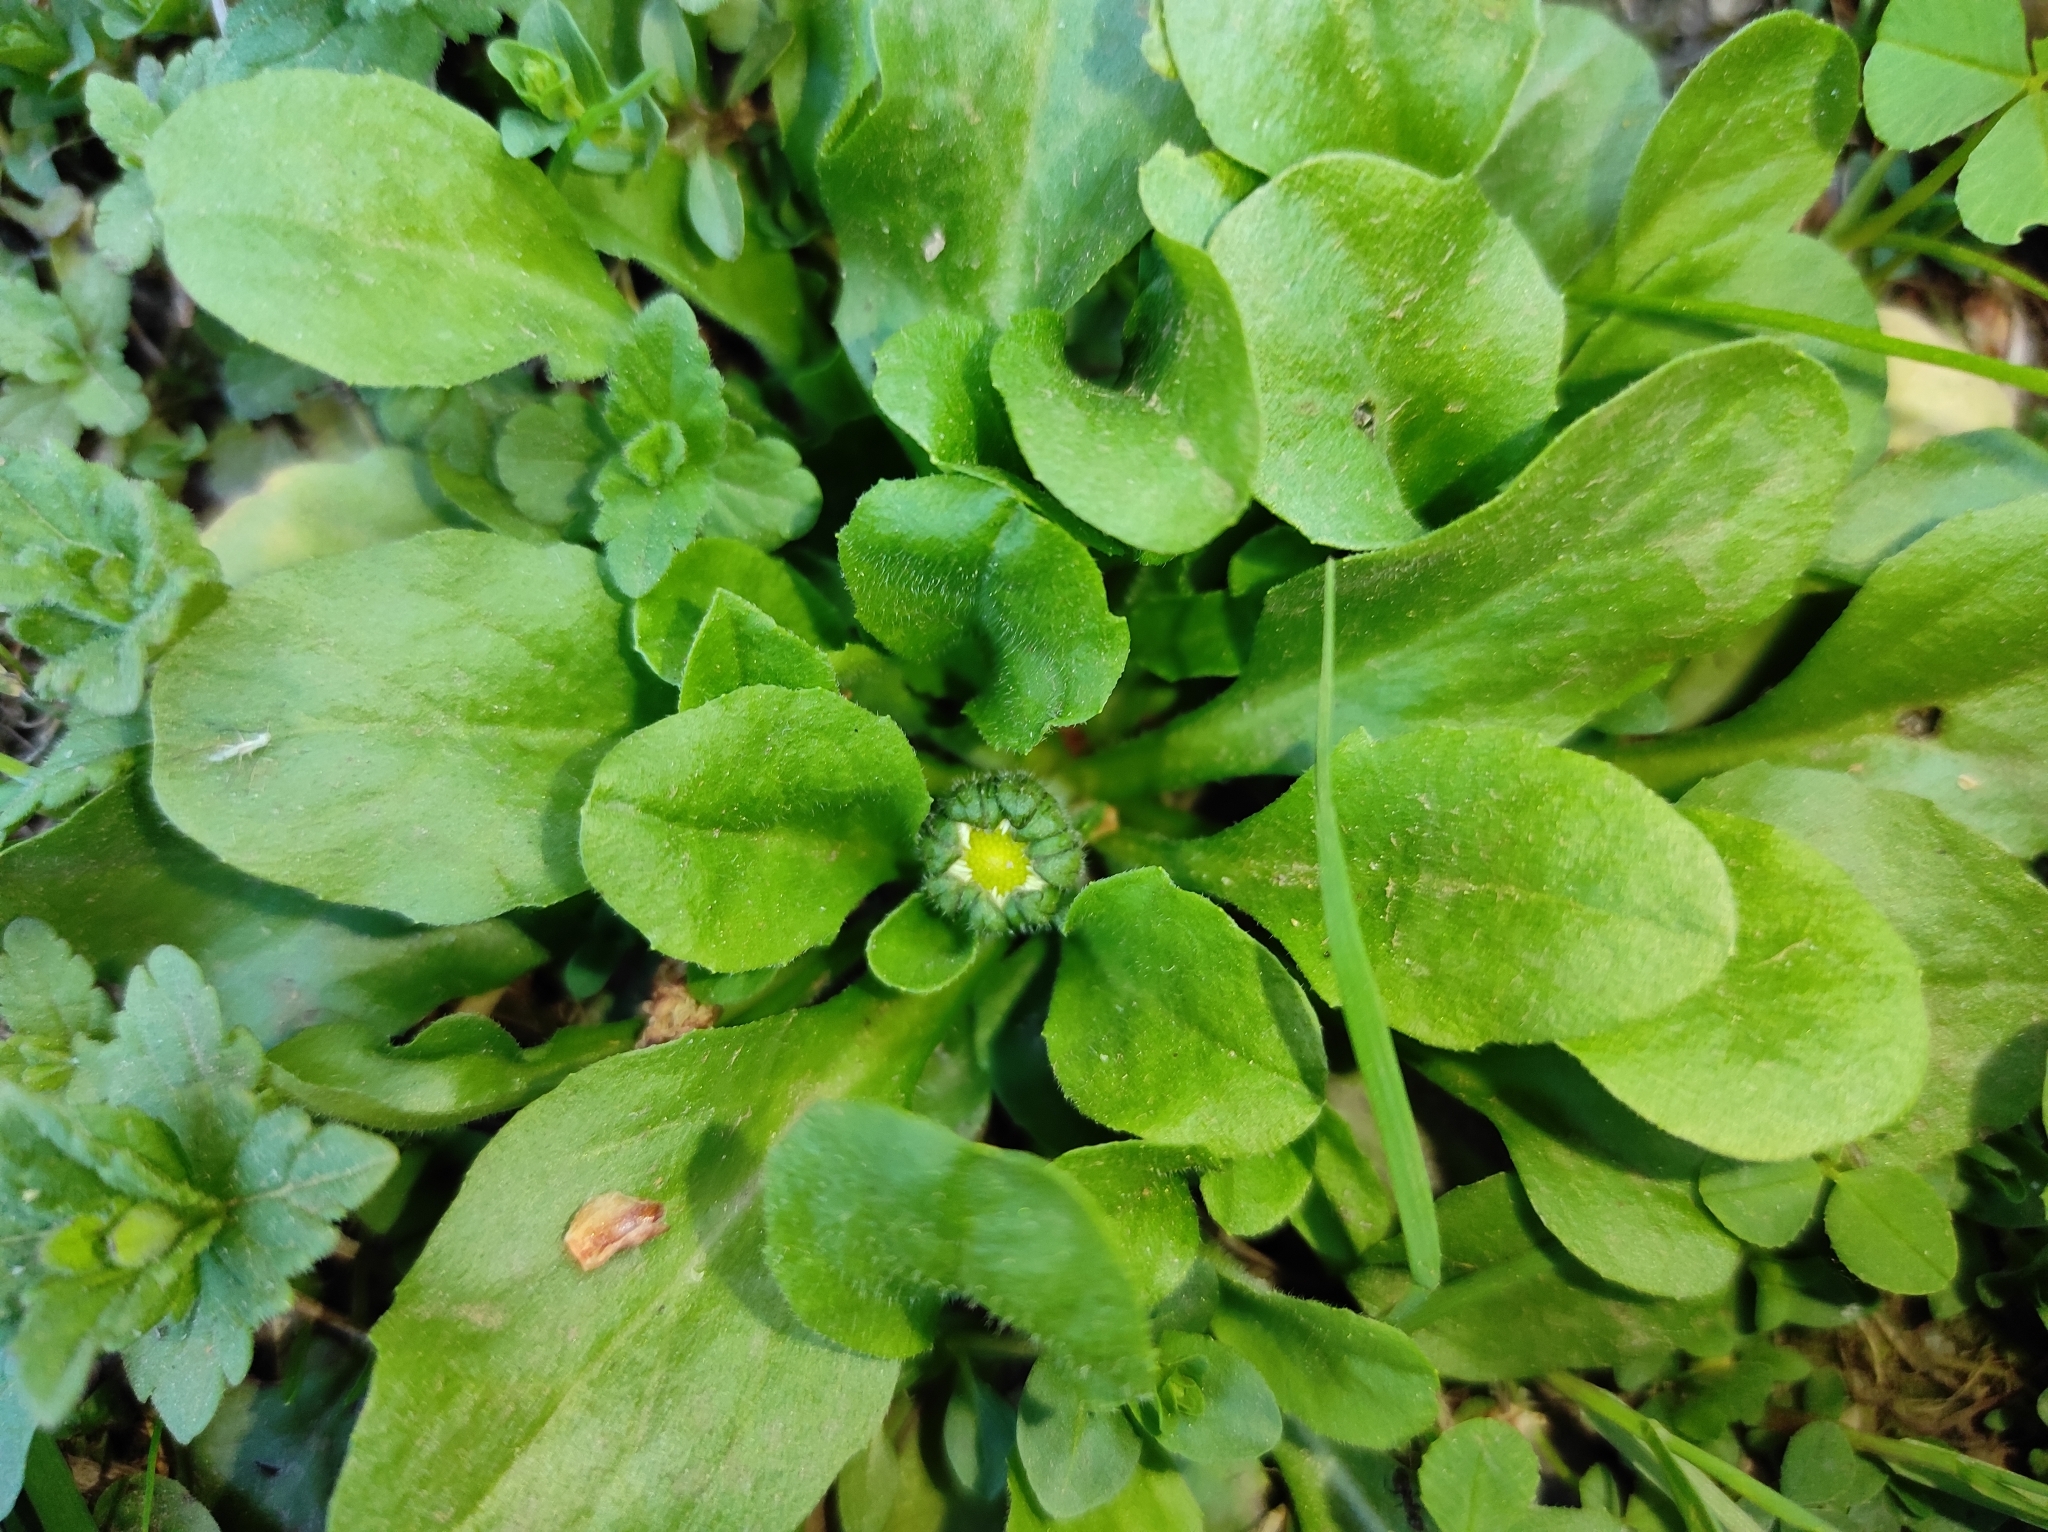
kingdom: Plantae
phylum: Tracheophyta
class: Magnoliopsida
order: Asterales
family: Asteraceae
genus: Bellis
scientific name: Bellis perennis
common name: Lawndaisy
